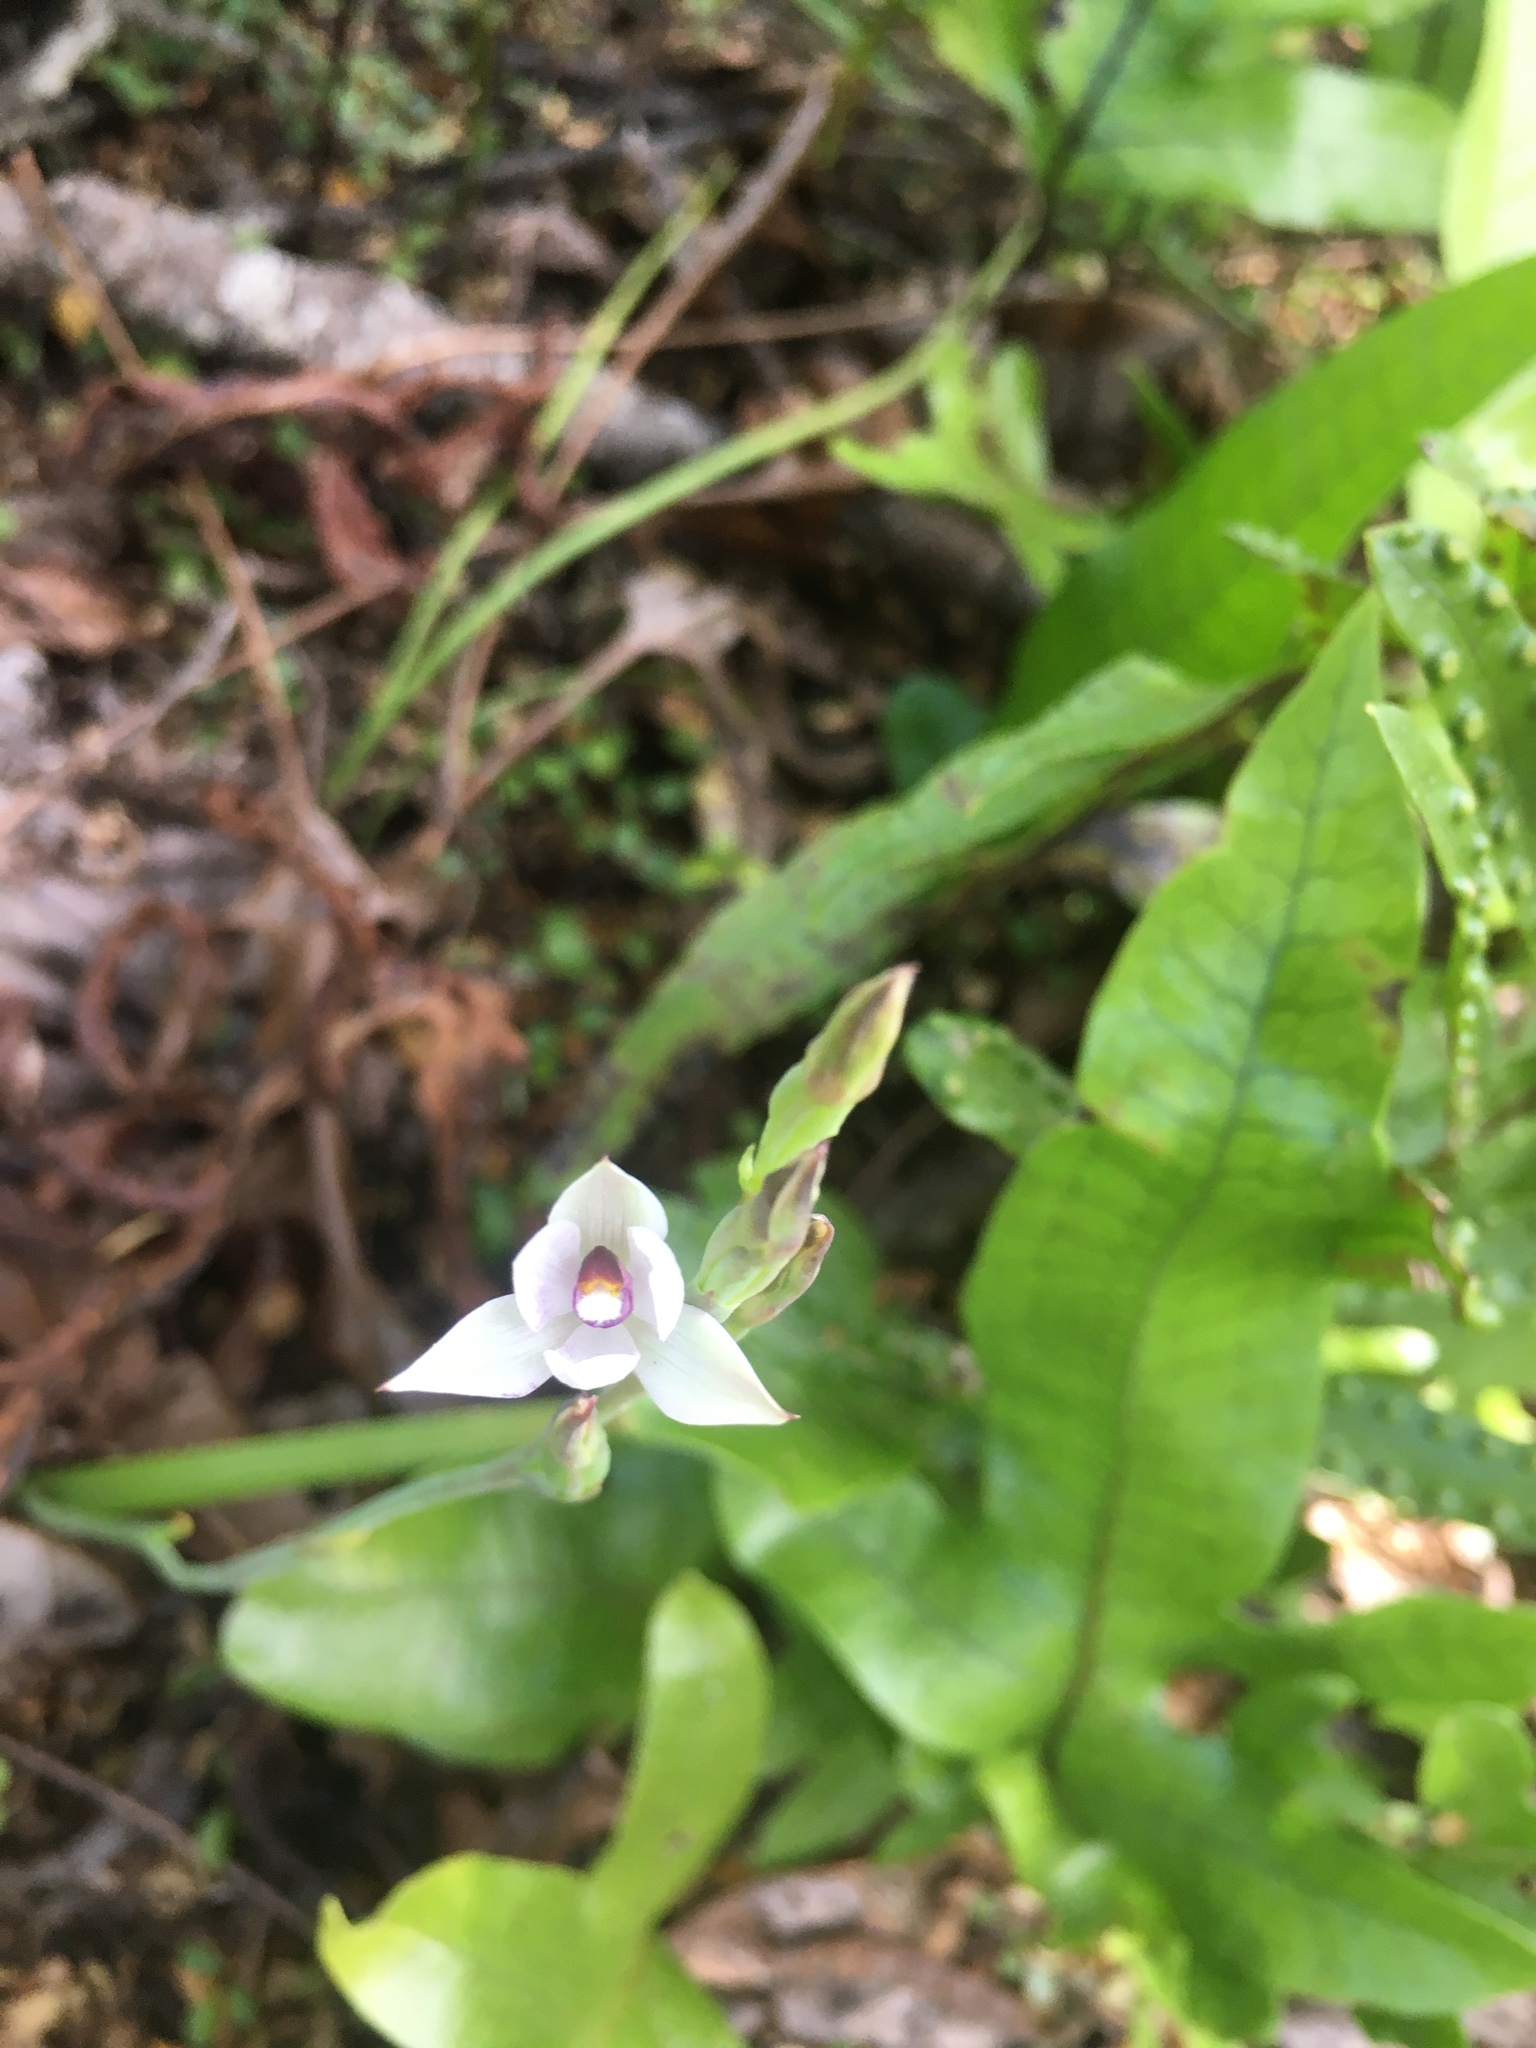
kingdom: Plantae
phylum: Tracheophyta
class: Liliopsida
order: Asparagales
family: Orchidaceae
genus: Thelymitra
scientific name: Thelymitra longifolia
